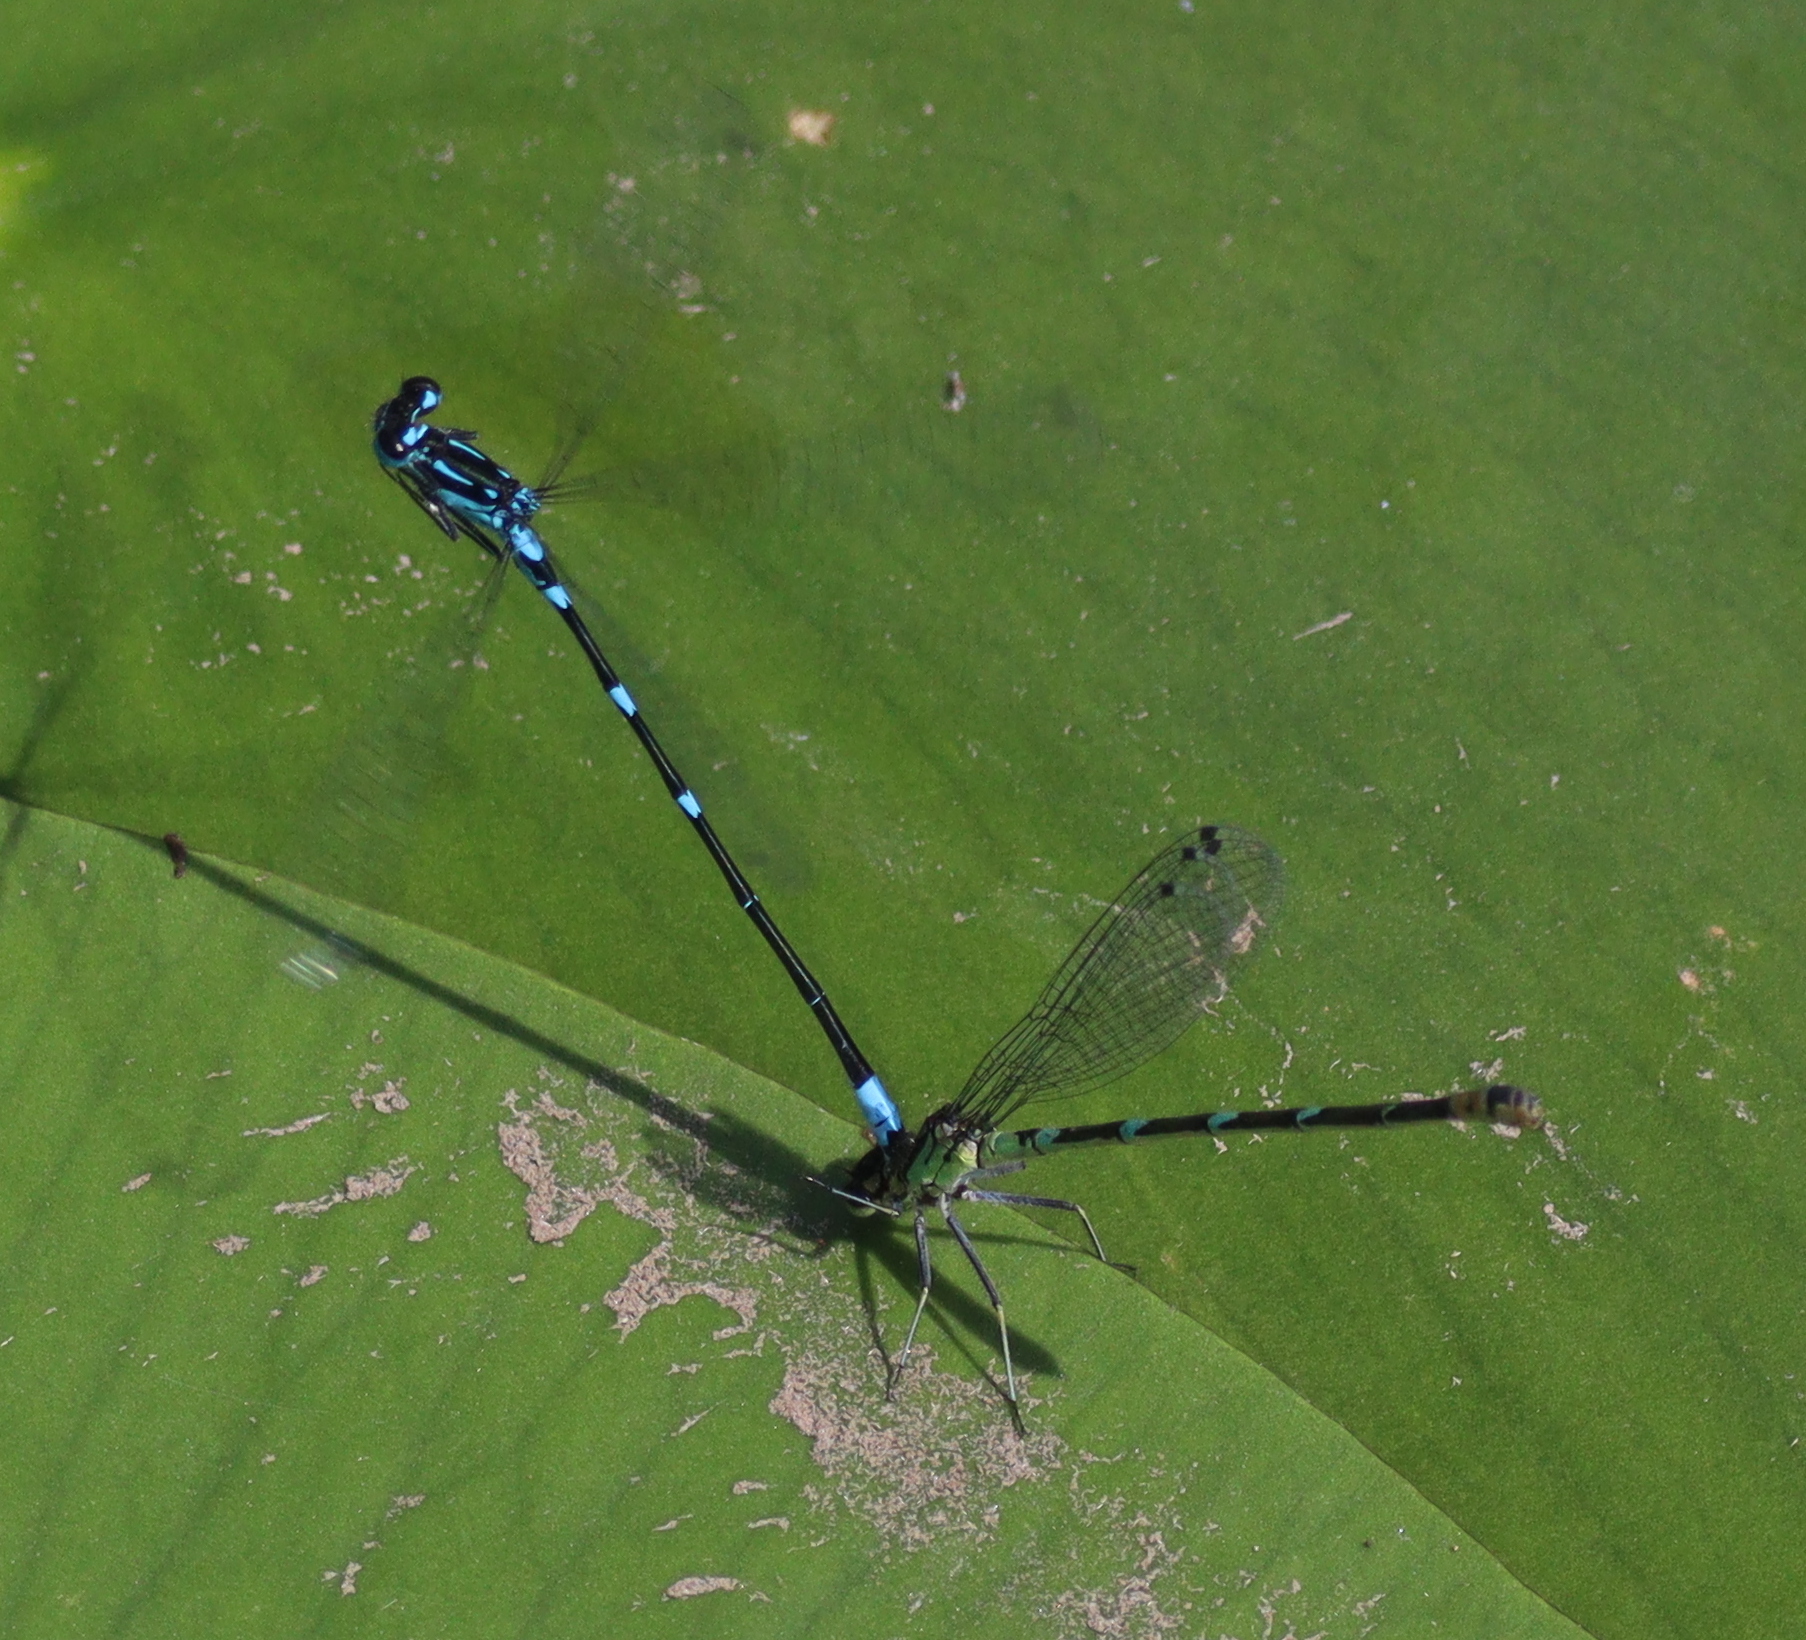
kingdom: Animalia
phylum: Arthropoda
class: Insecta
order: Odonata
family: Coenagrionidae
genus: Coenagrion
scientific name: Coenagrion pulchellum
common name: Variable bluet
